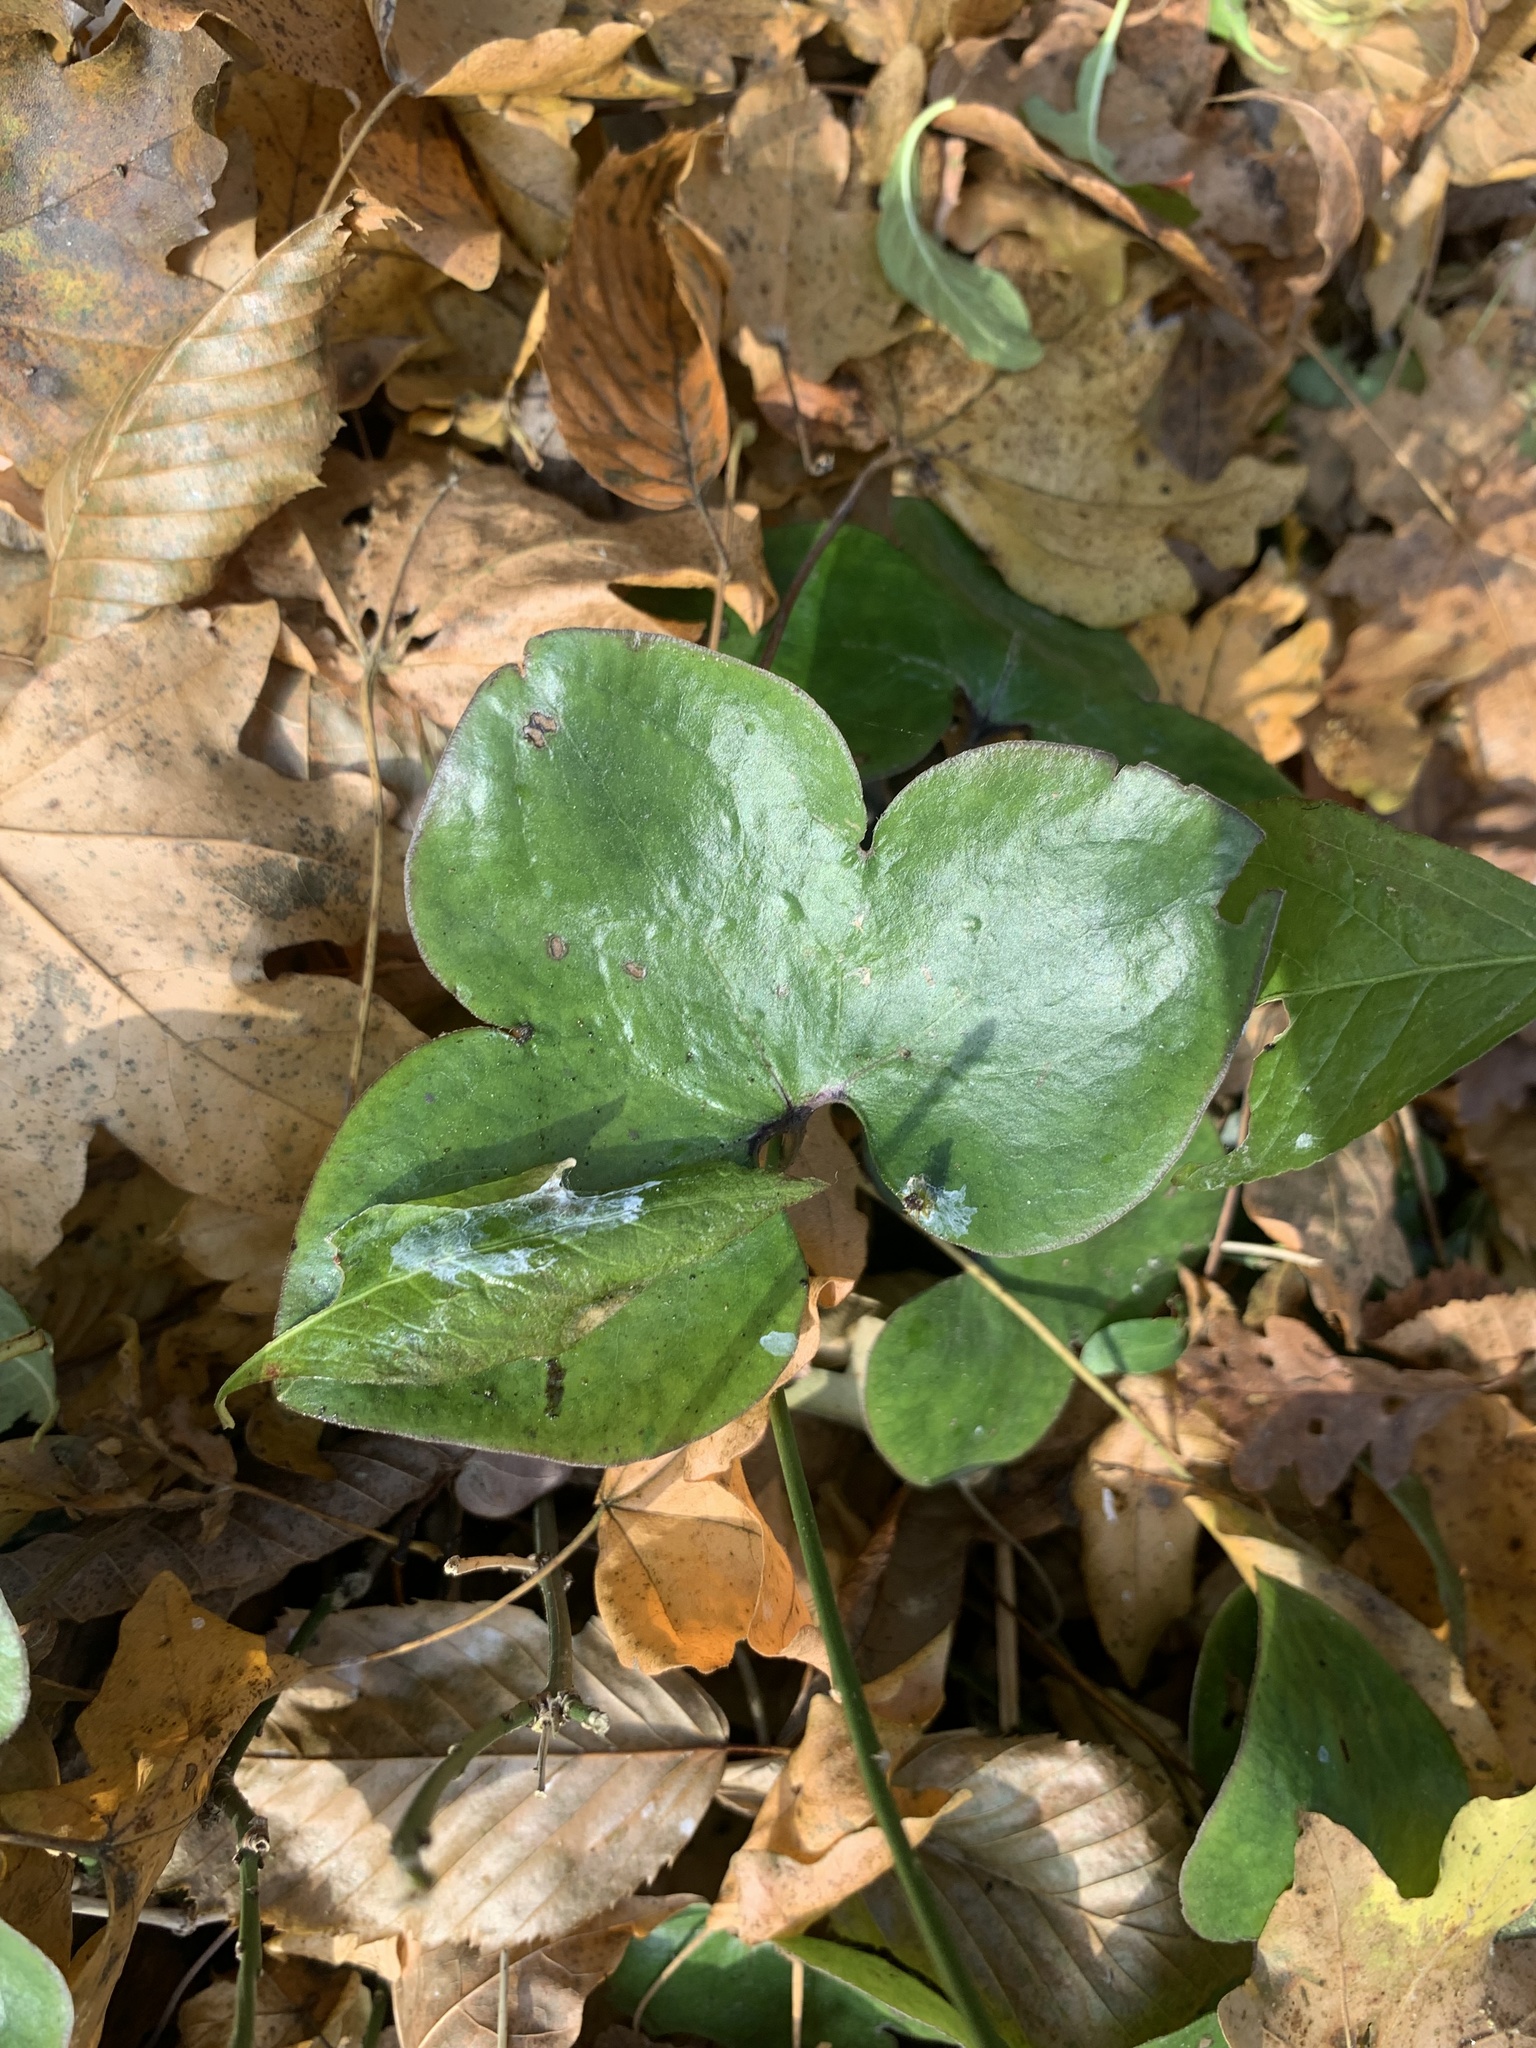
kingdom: Plantae
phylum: Tracheophyta
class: Magnoliopsida
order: Ranunculales
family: Ranunculaceae
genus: Hepatica
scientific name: Hepatica nobilis
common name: Liverleaf
